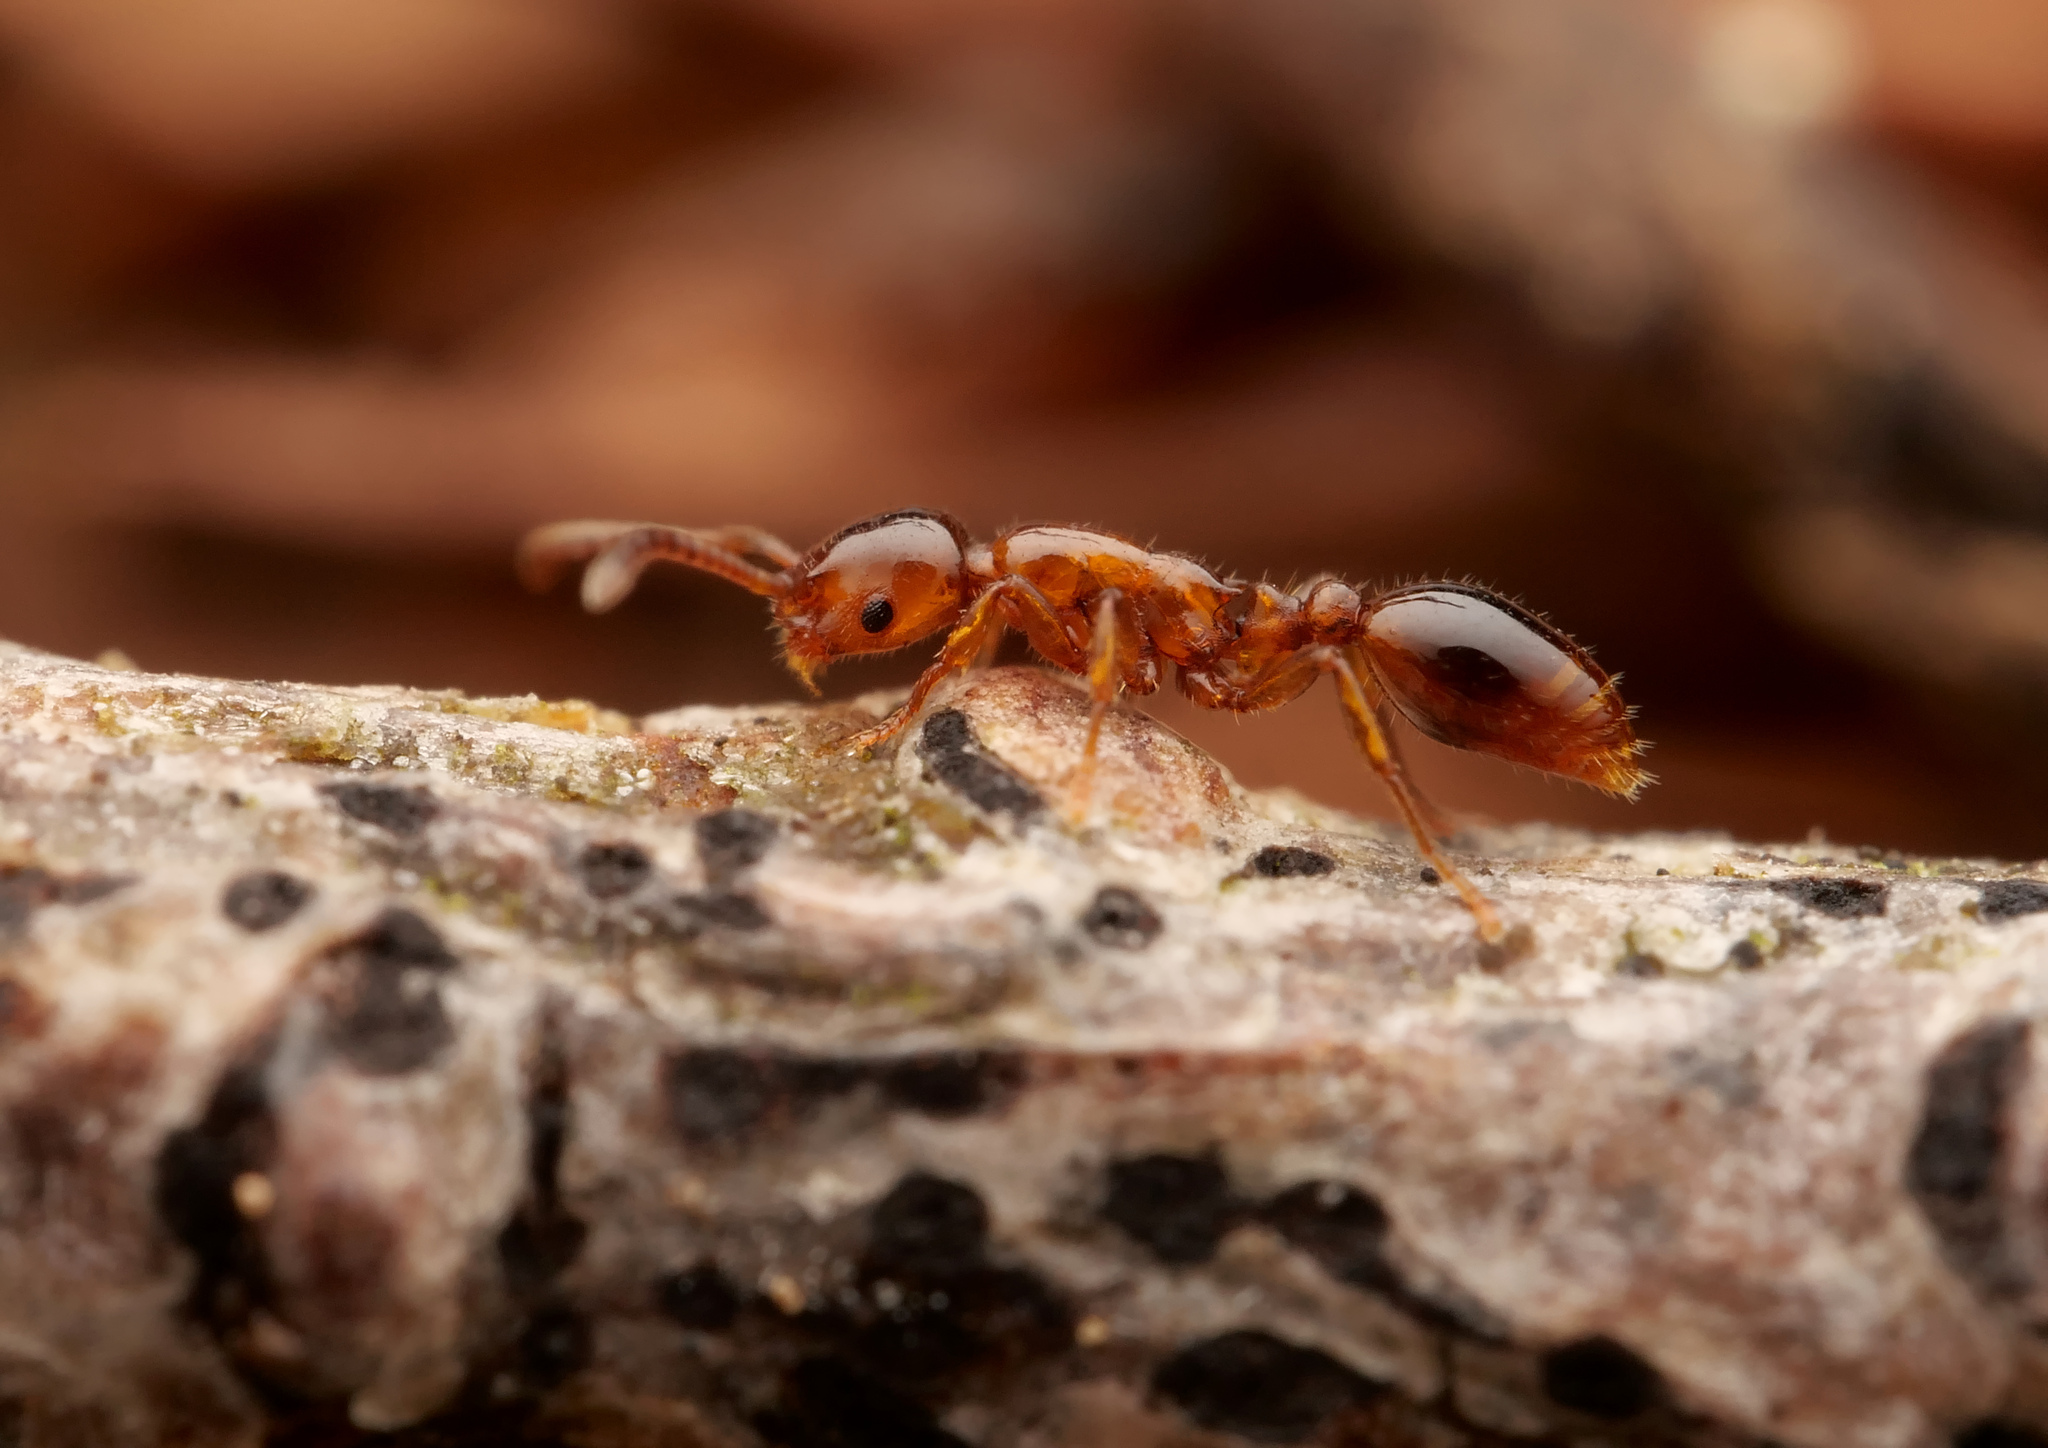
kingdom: Animalia
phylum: Arthropoda
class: Insecta
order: Hymenoptera
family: Formicidae
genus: Formicoxenus
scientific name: Formicoxenus nitidulus
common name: Shining guest ant
